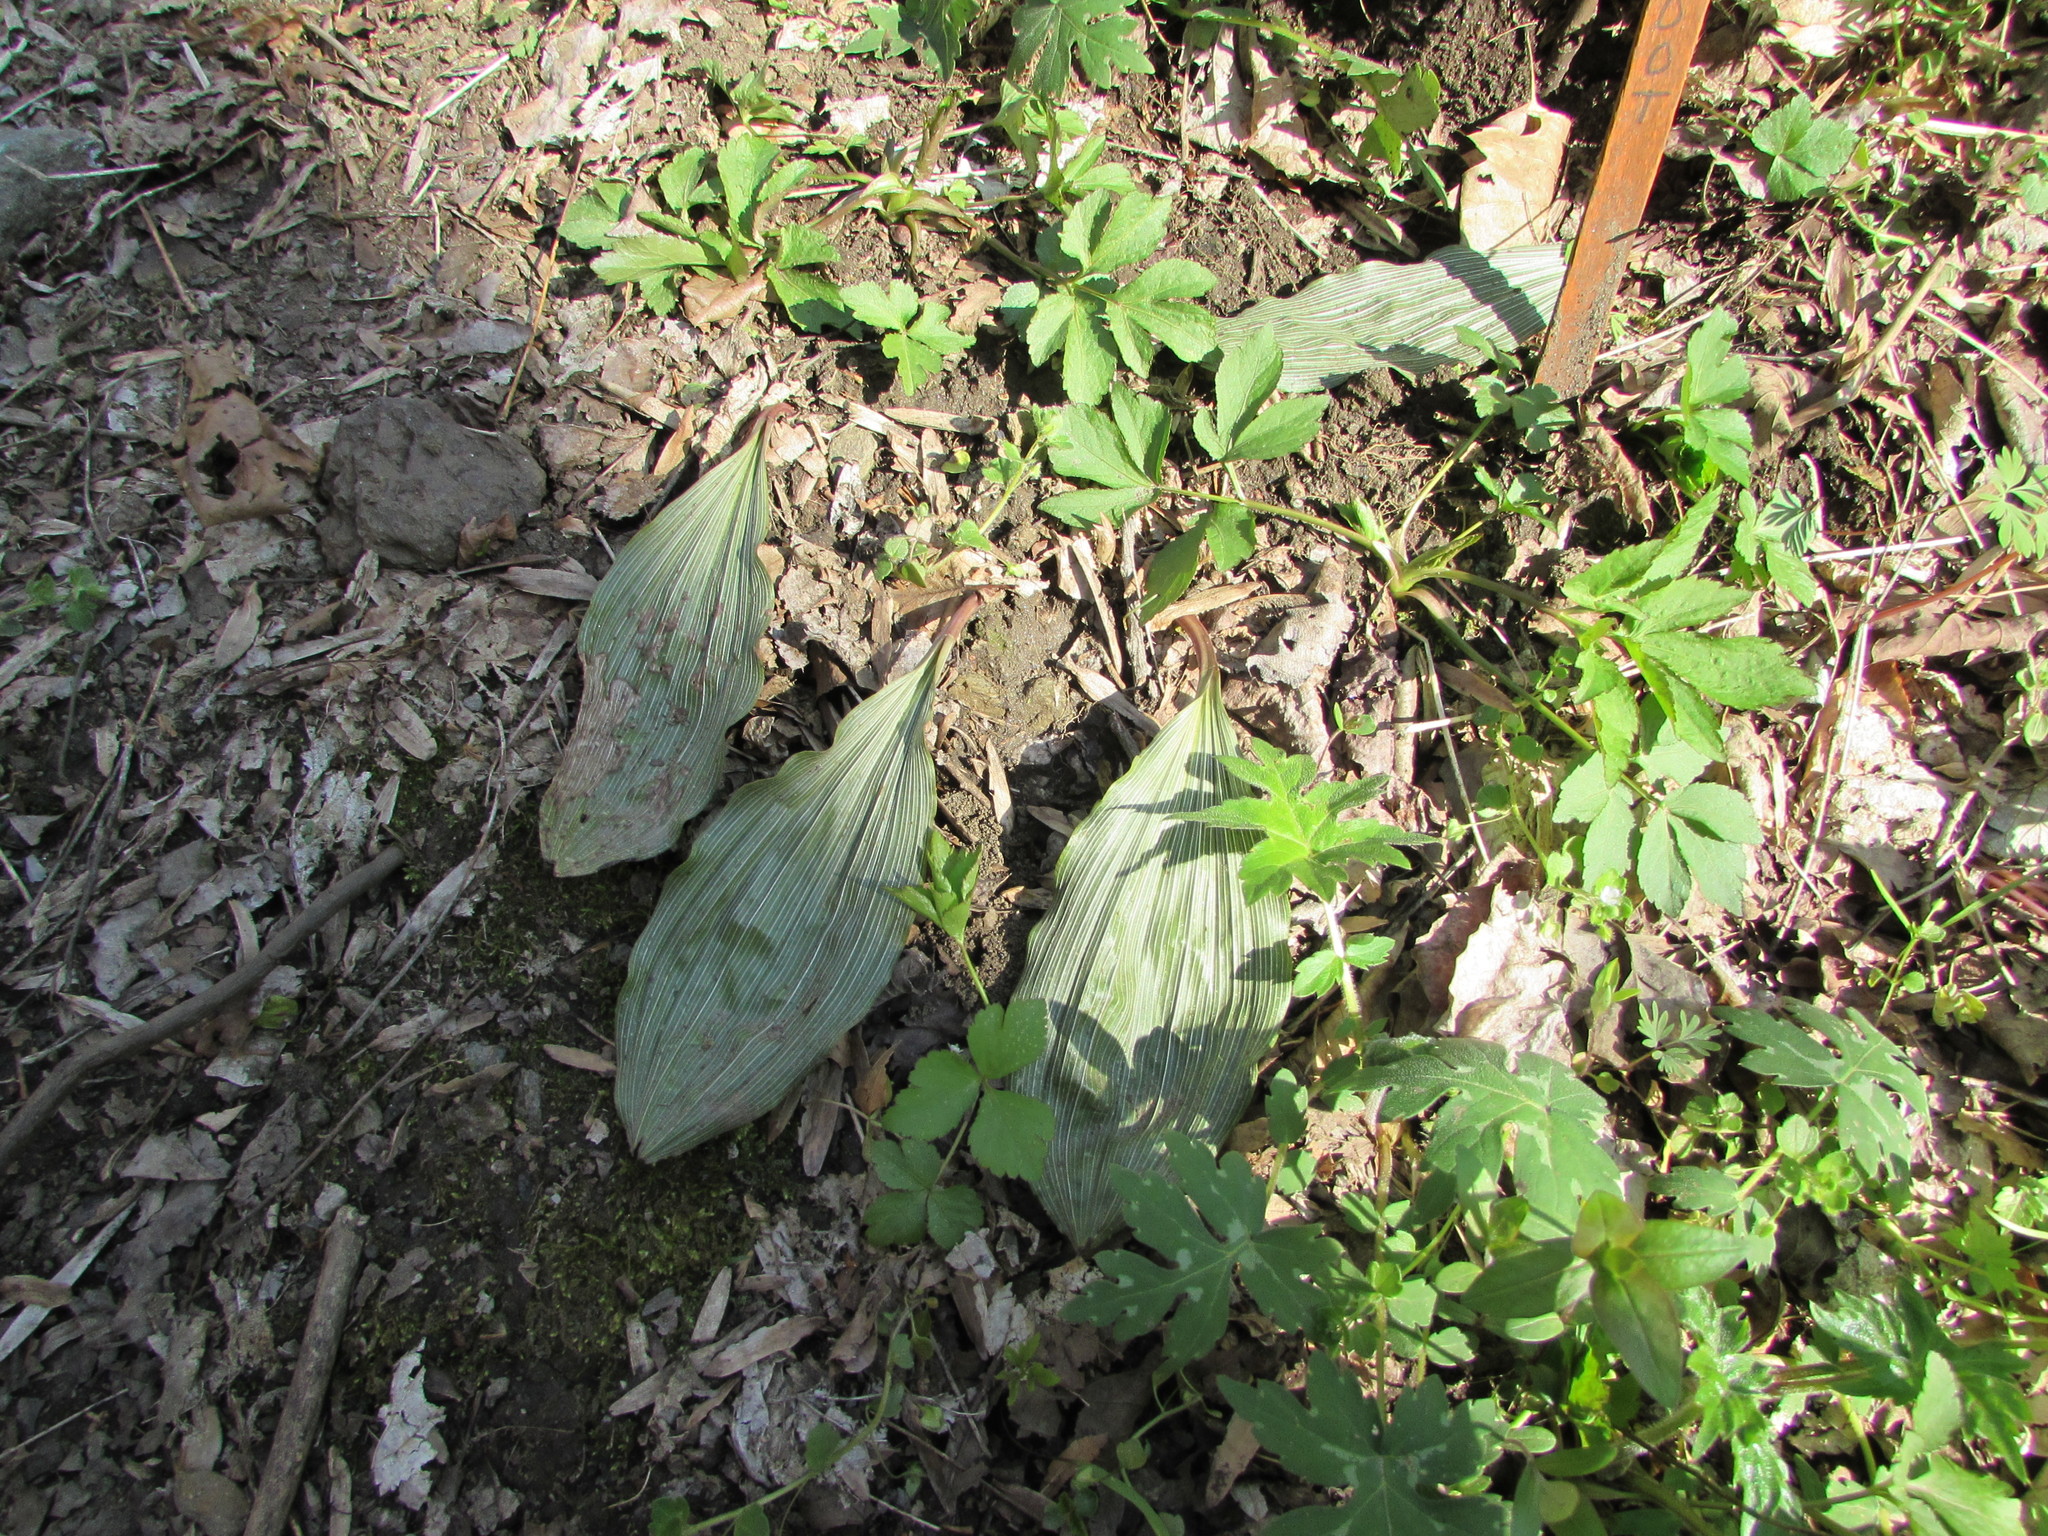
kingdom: Plantae
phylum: Tracheophyta
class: Liliopsida
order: Asparagales
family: Orchidaceae
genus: Aplectrum
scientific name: Aplectrum hyemale
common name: Adam-and-eve
